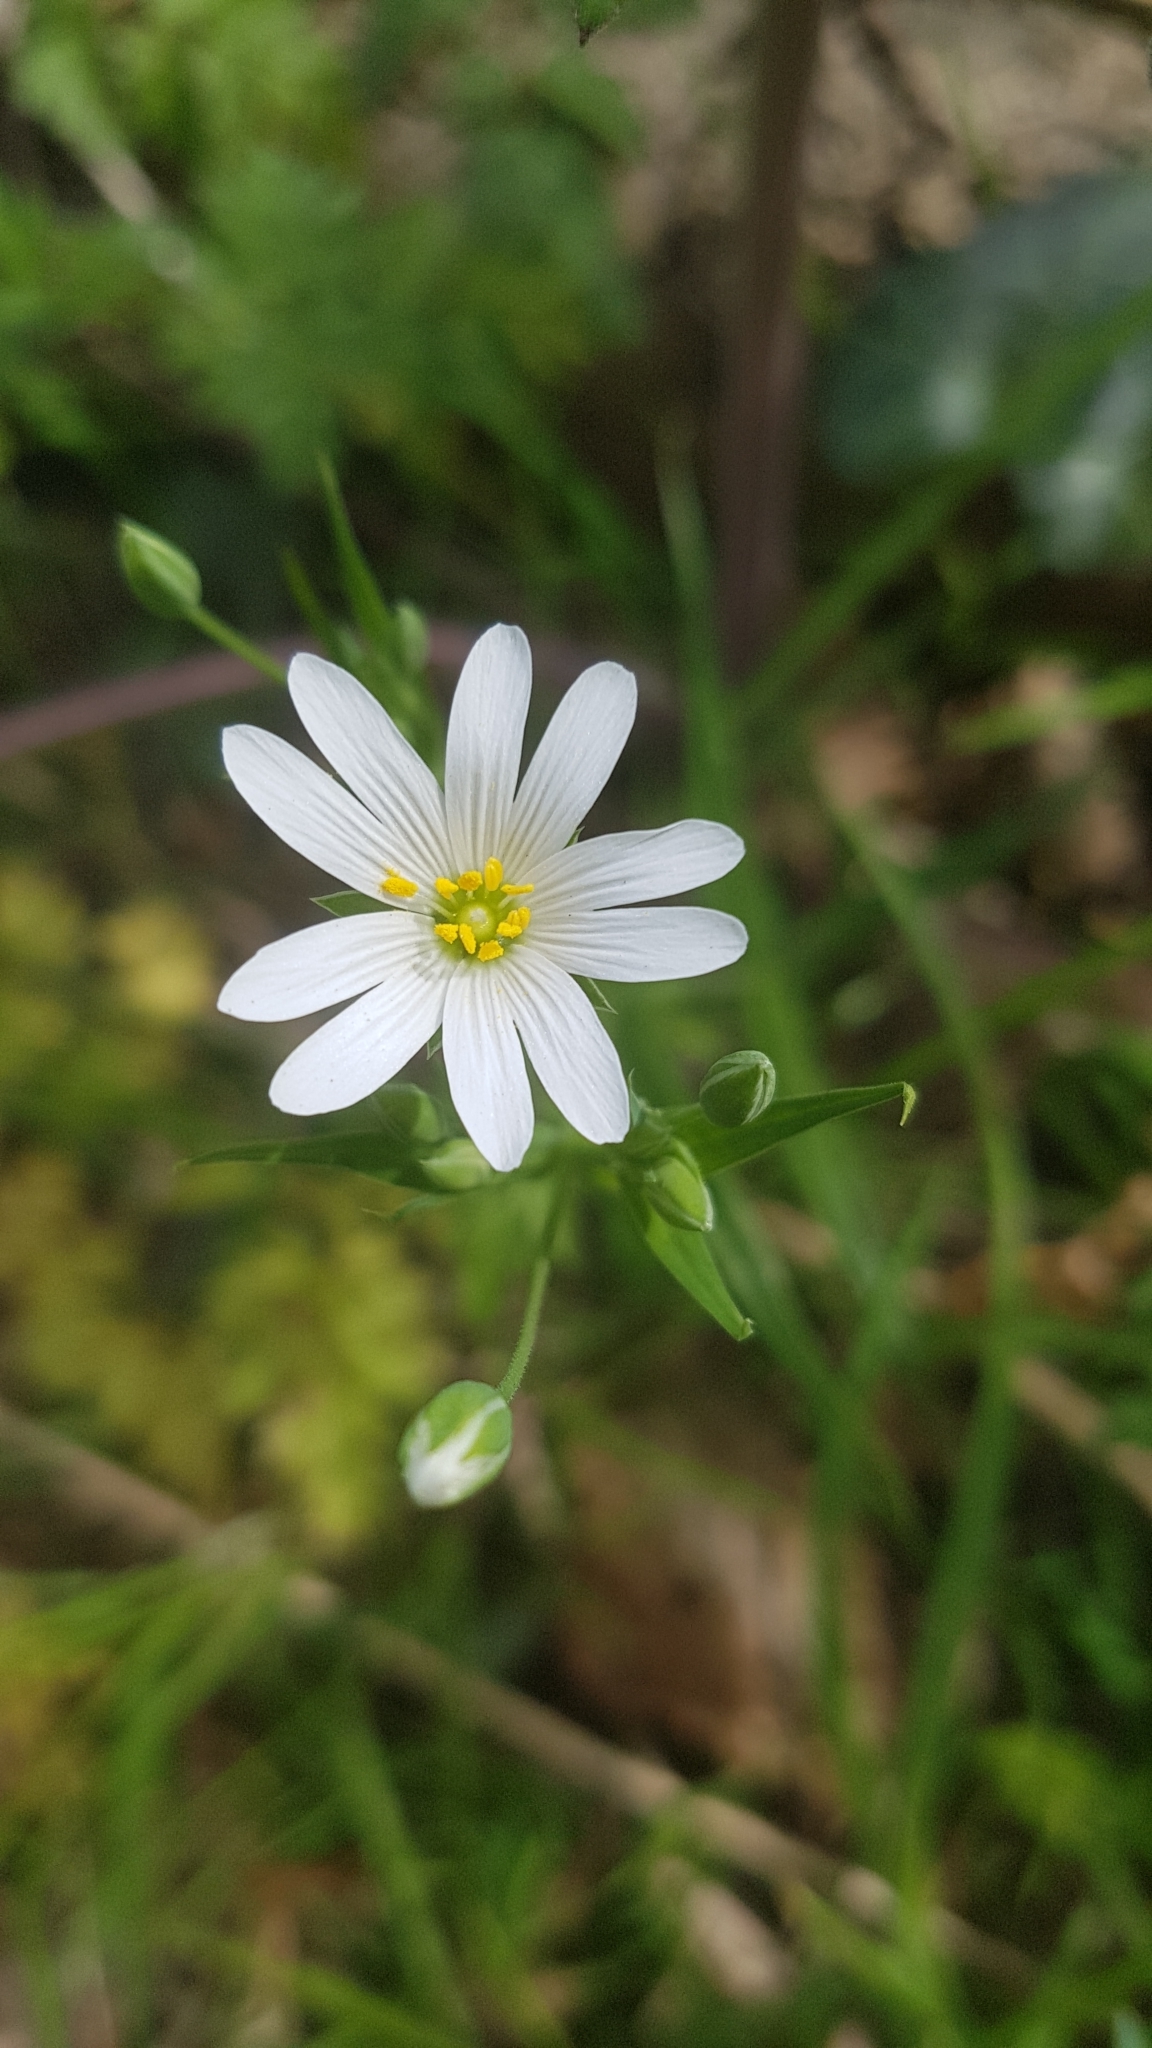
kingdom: Plantae
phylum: Tracheophyta
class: Magnoliopsida
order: Caryophyllales
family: Caryophyllaceae
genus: Rabelera
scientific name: Rabelera holostea
